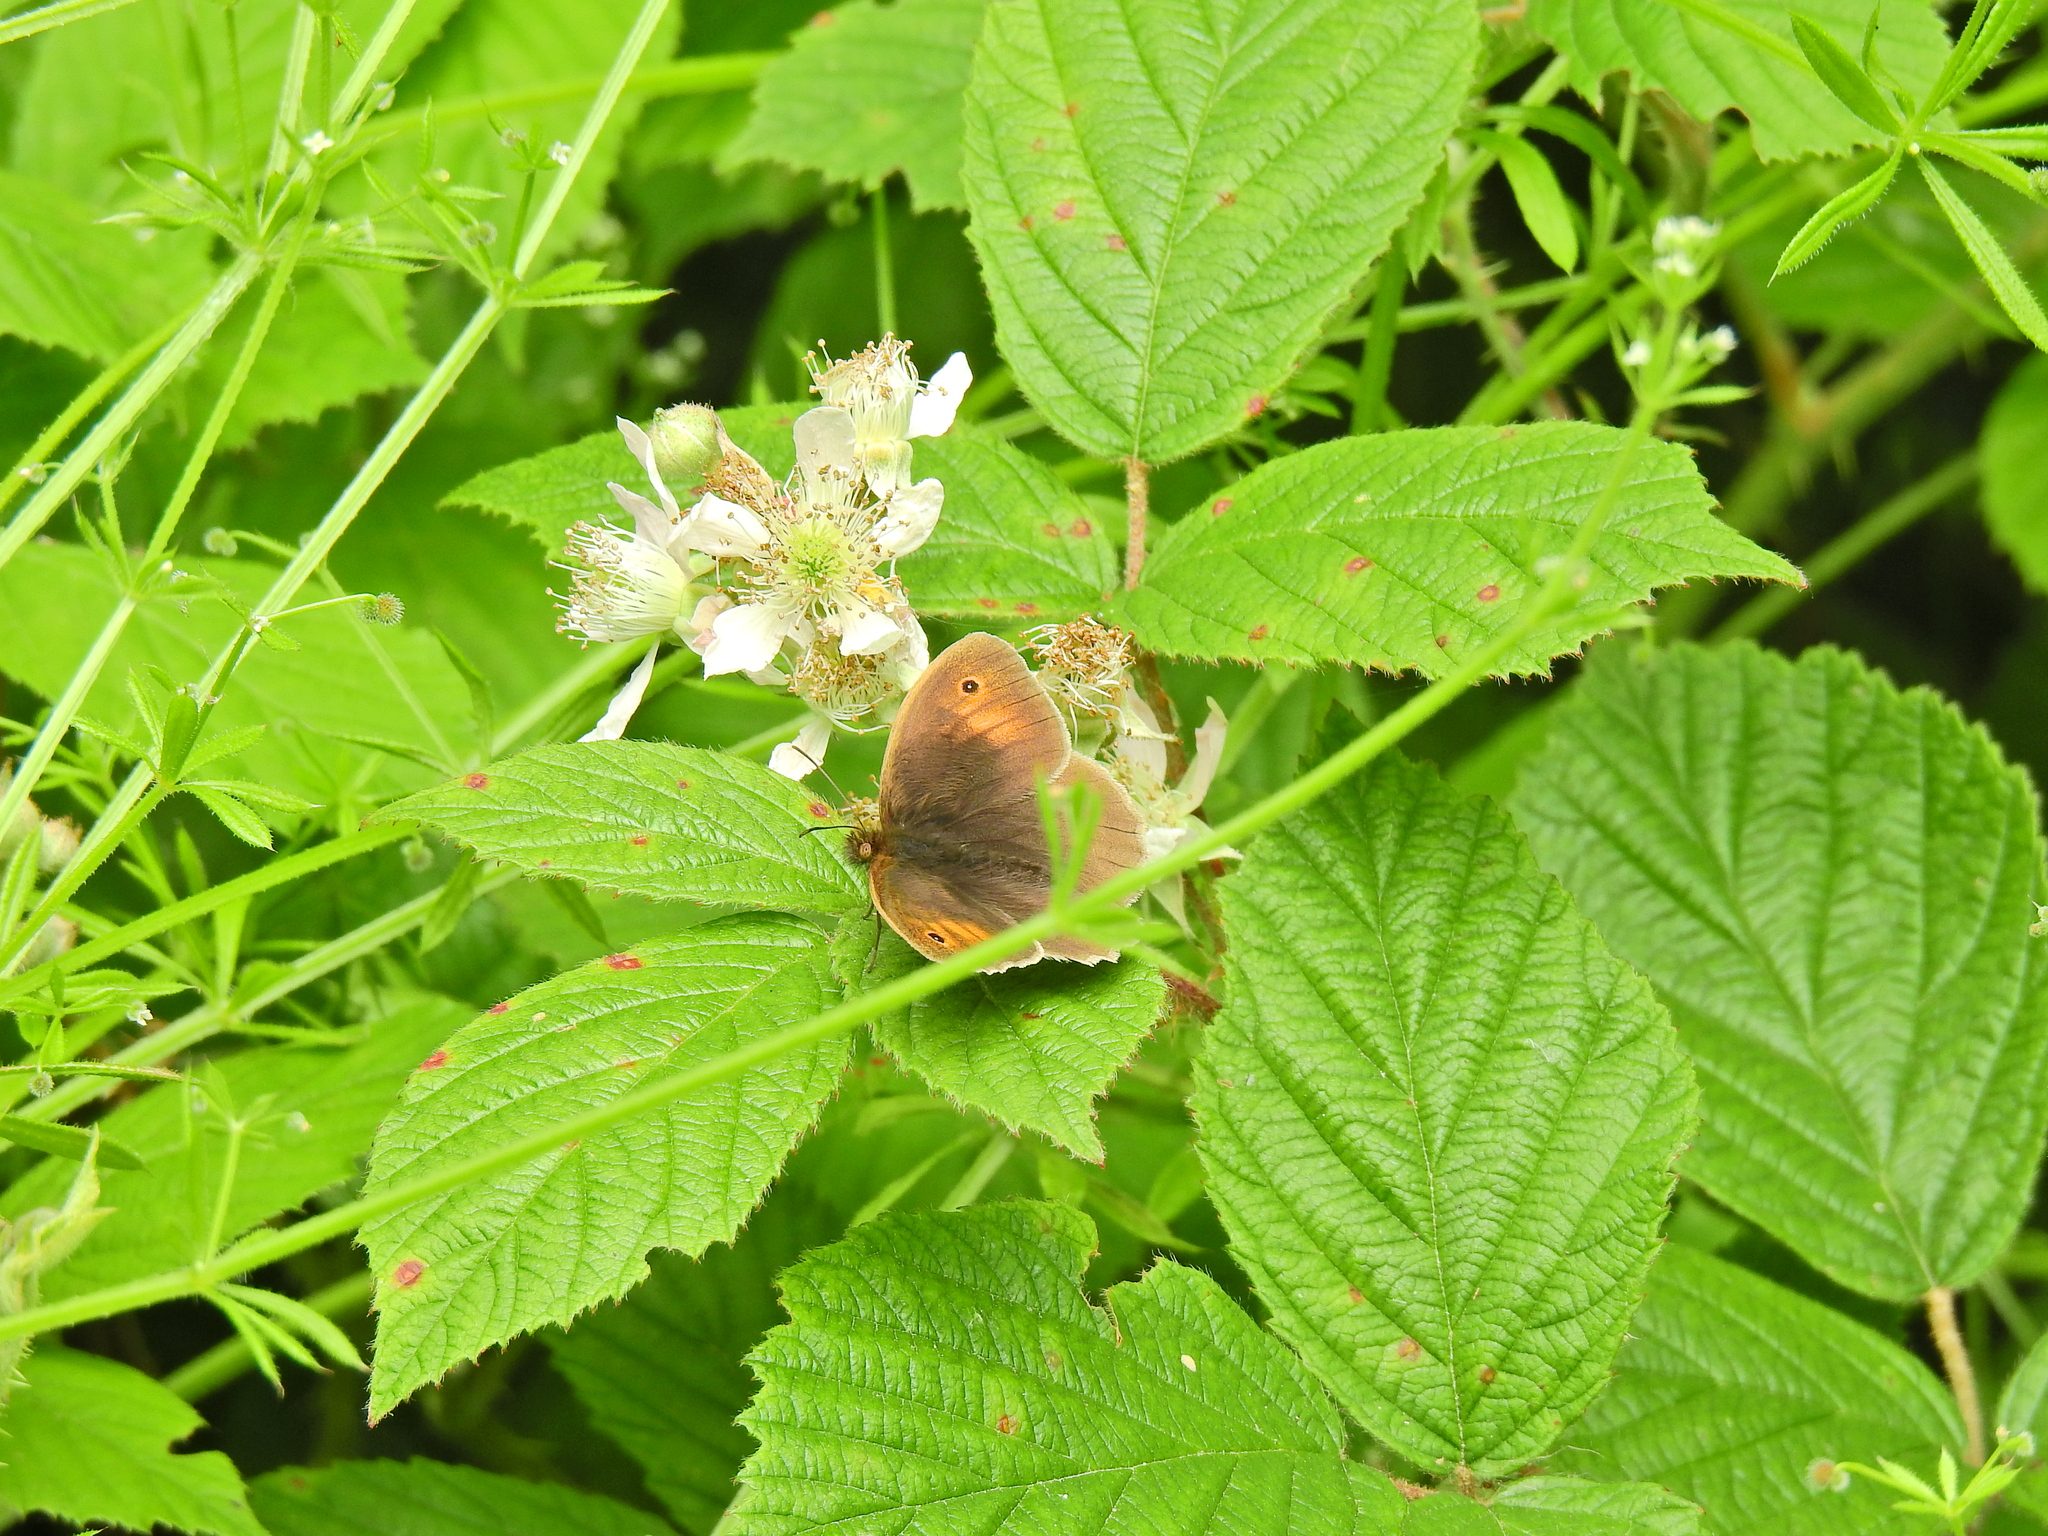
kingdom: Animalia
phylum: Arthropoda
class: Insecta
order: Lepidoptera
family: Nymphalidae
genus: Maniola
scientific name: Maniola jurtina
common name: Meadow brown
